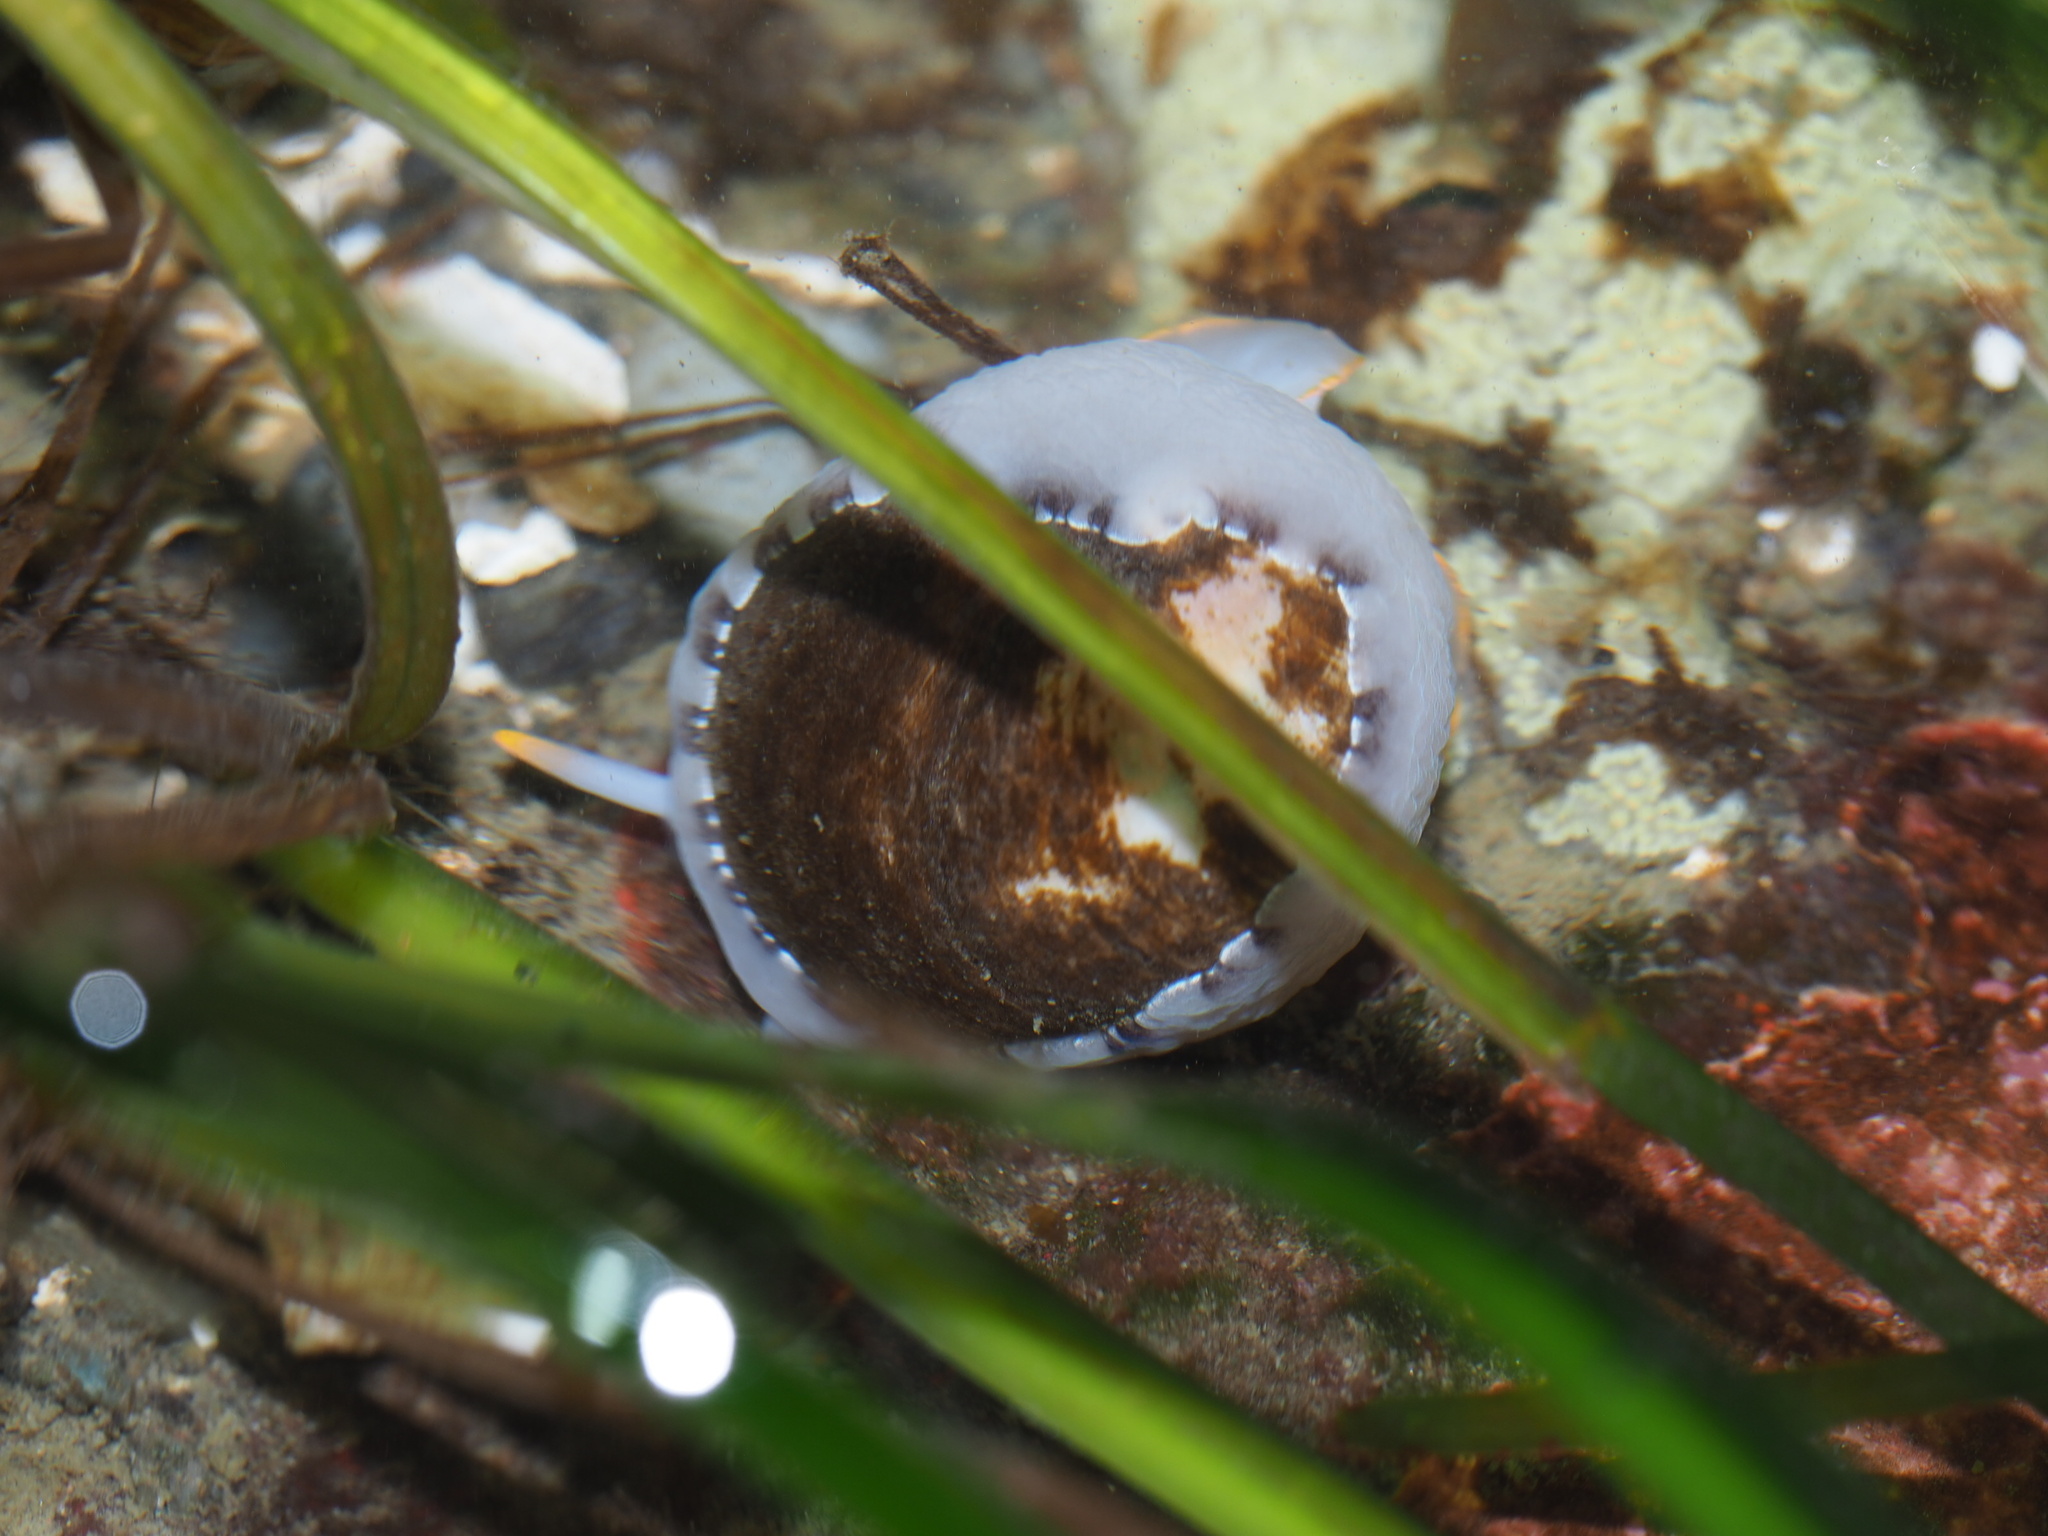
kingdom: Animalia
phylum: Mollusca
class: Gastropoda
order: Littorinimorpha
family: Velutinidae
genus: Limneria
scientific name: Limneria prolongata
